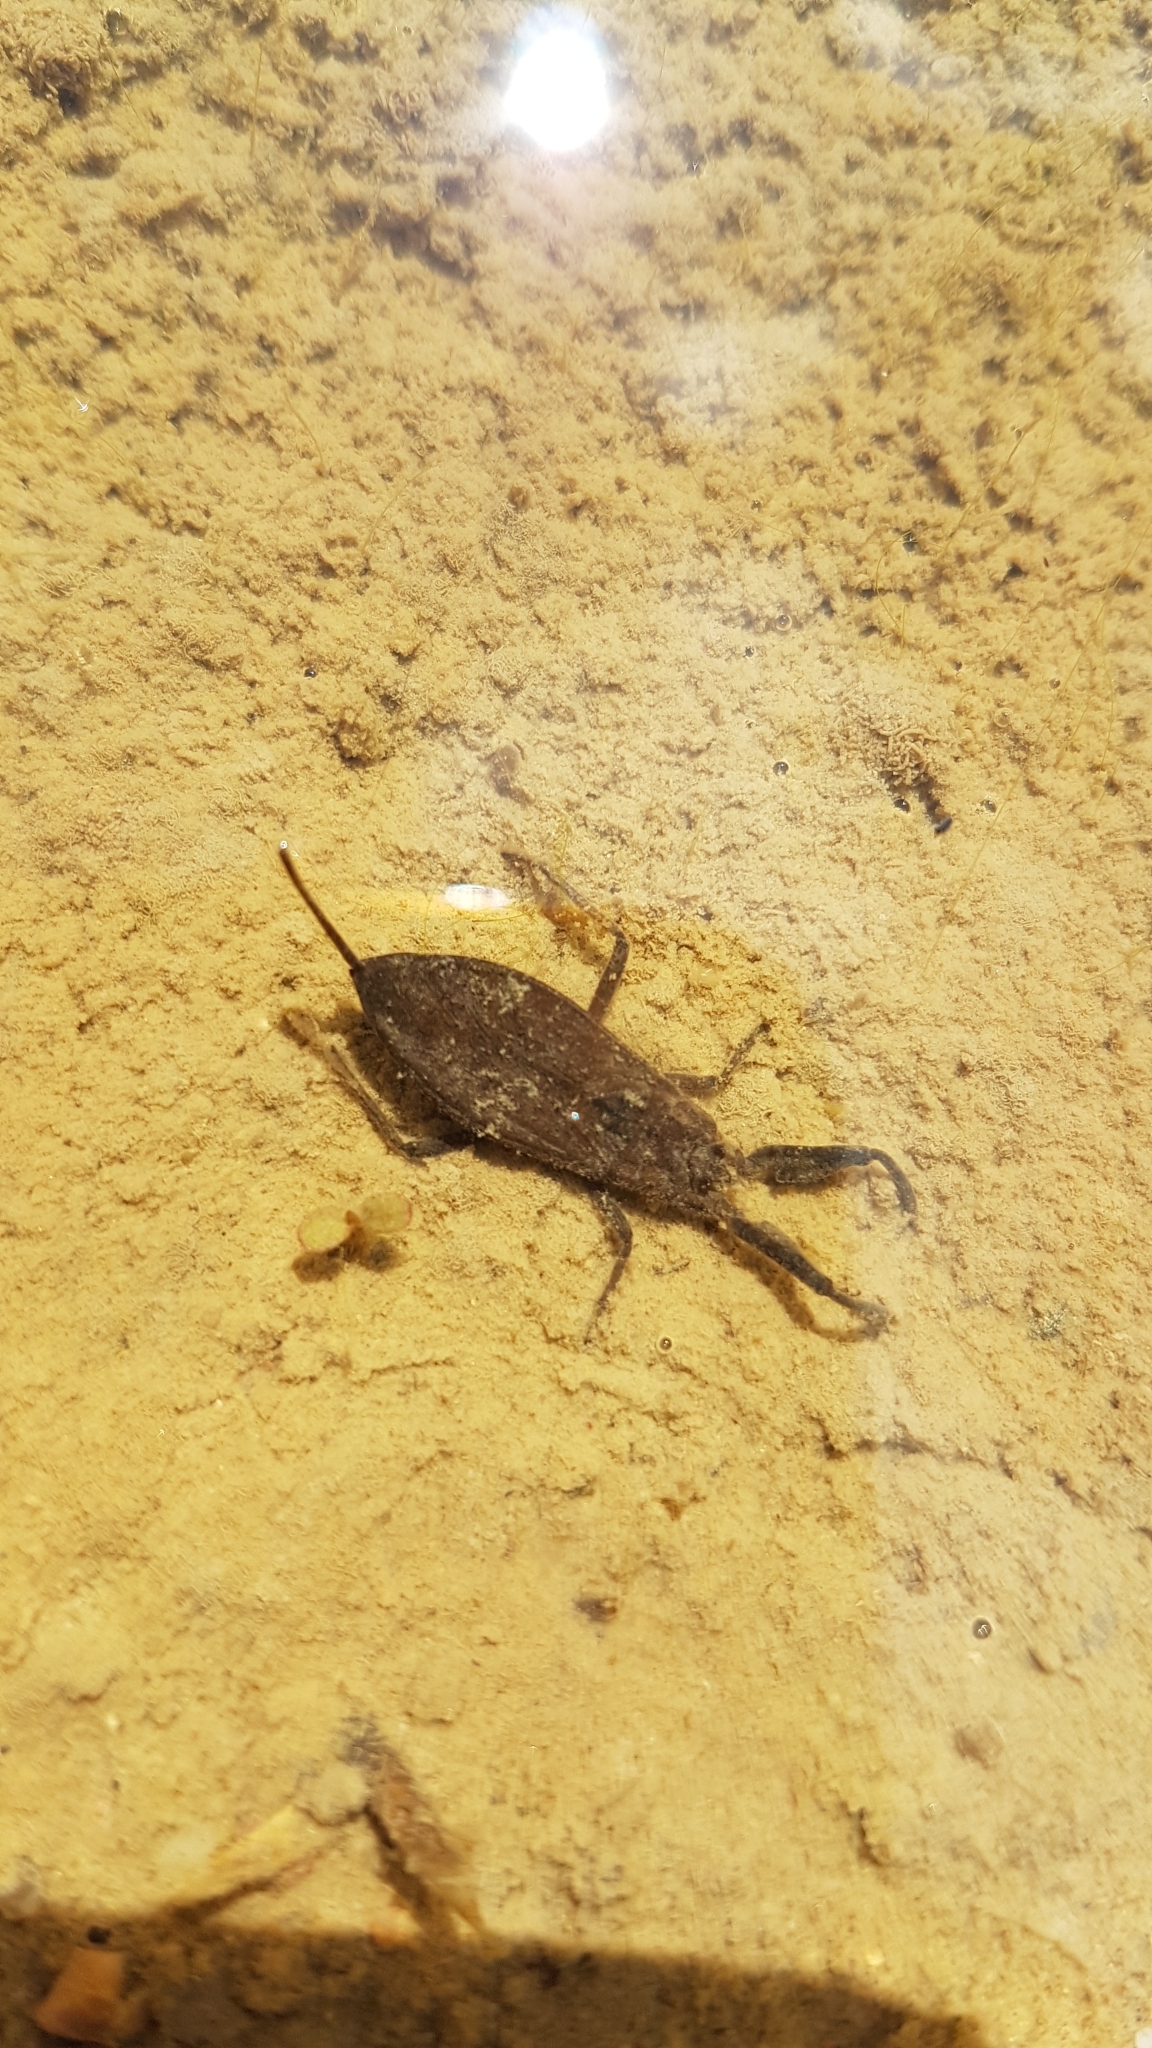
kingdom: Animalia
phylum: Arthropoda
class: Insecta
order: Hemiptera
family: Nepidae
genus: Nepa
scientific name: Nepa cinerea
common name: Water scorpion
